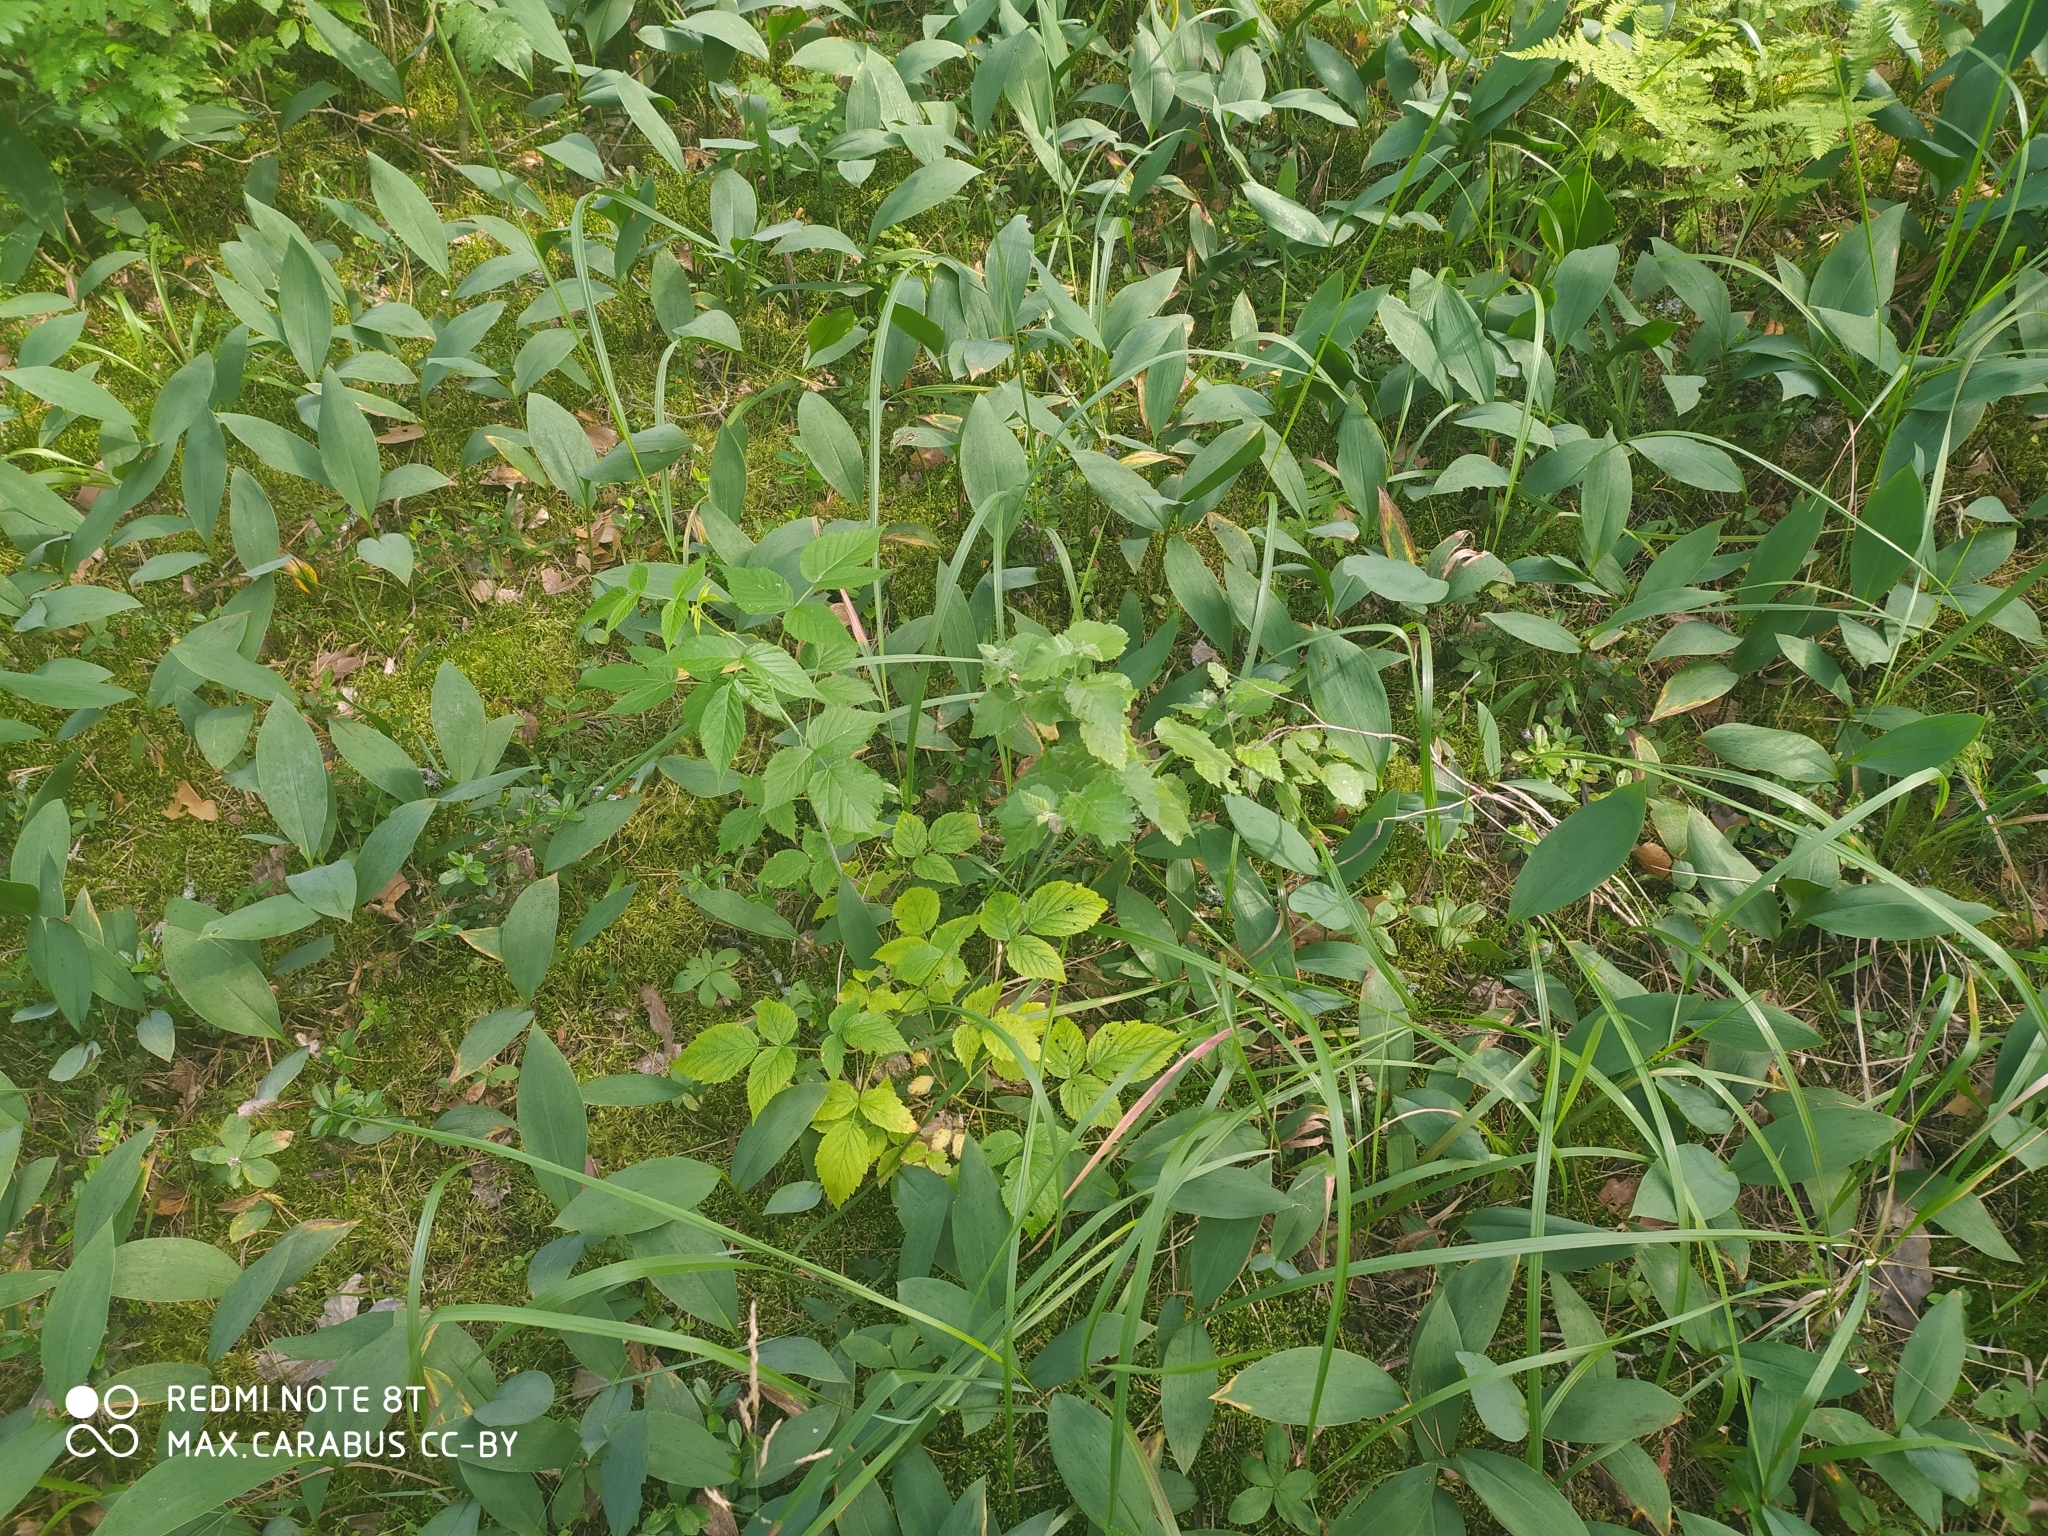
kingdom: Plantae
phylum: Tracheophyta
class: Liliopsida
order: Asparagales
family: Asparagaceae
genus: Convallaria
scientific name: Convallaria majalis
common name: Lily-of-the-valley
